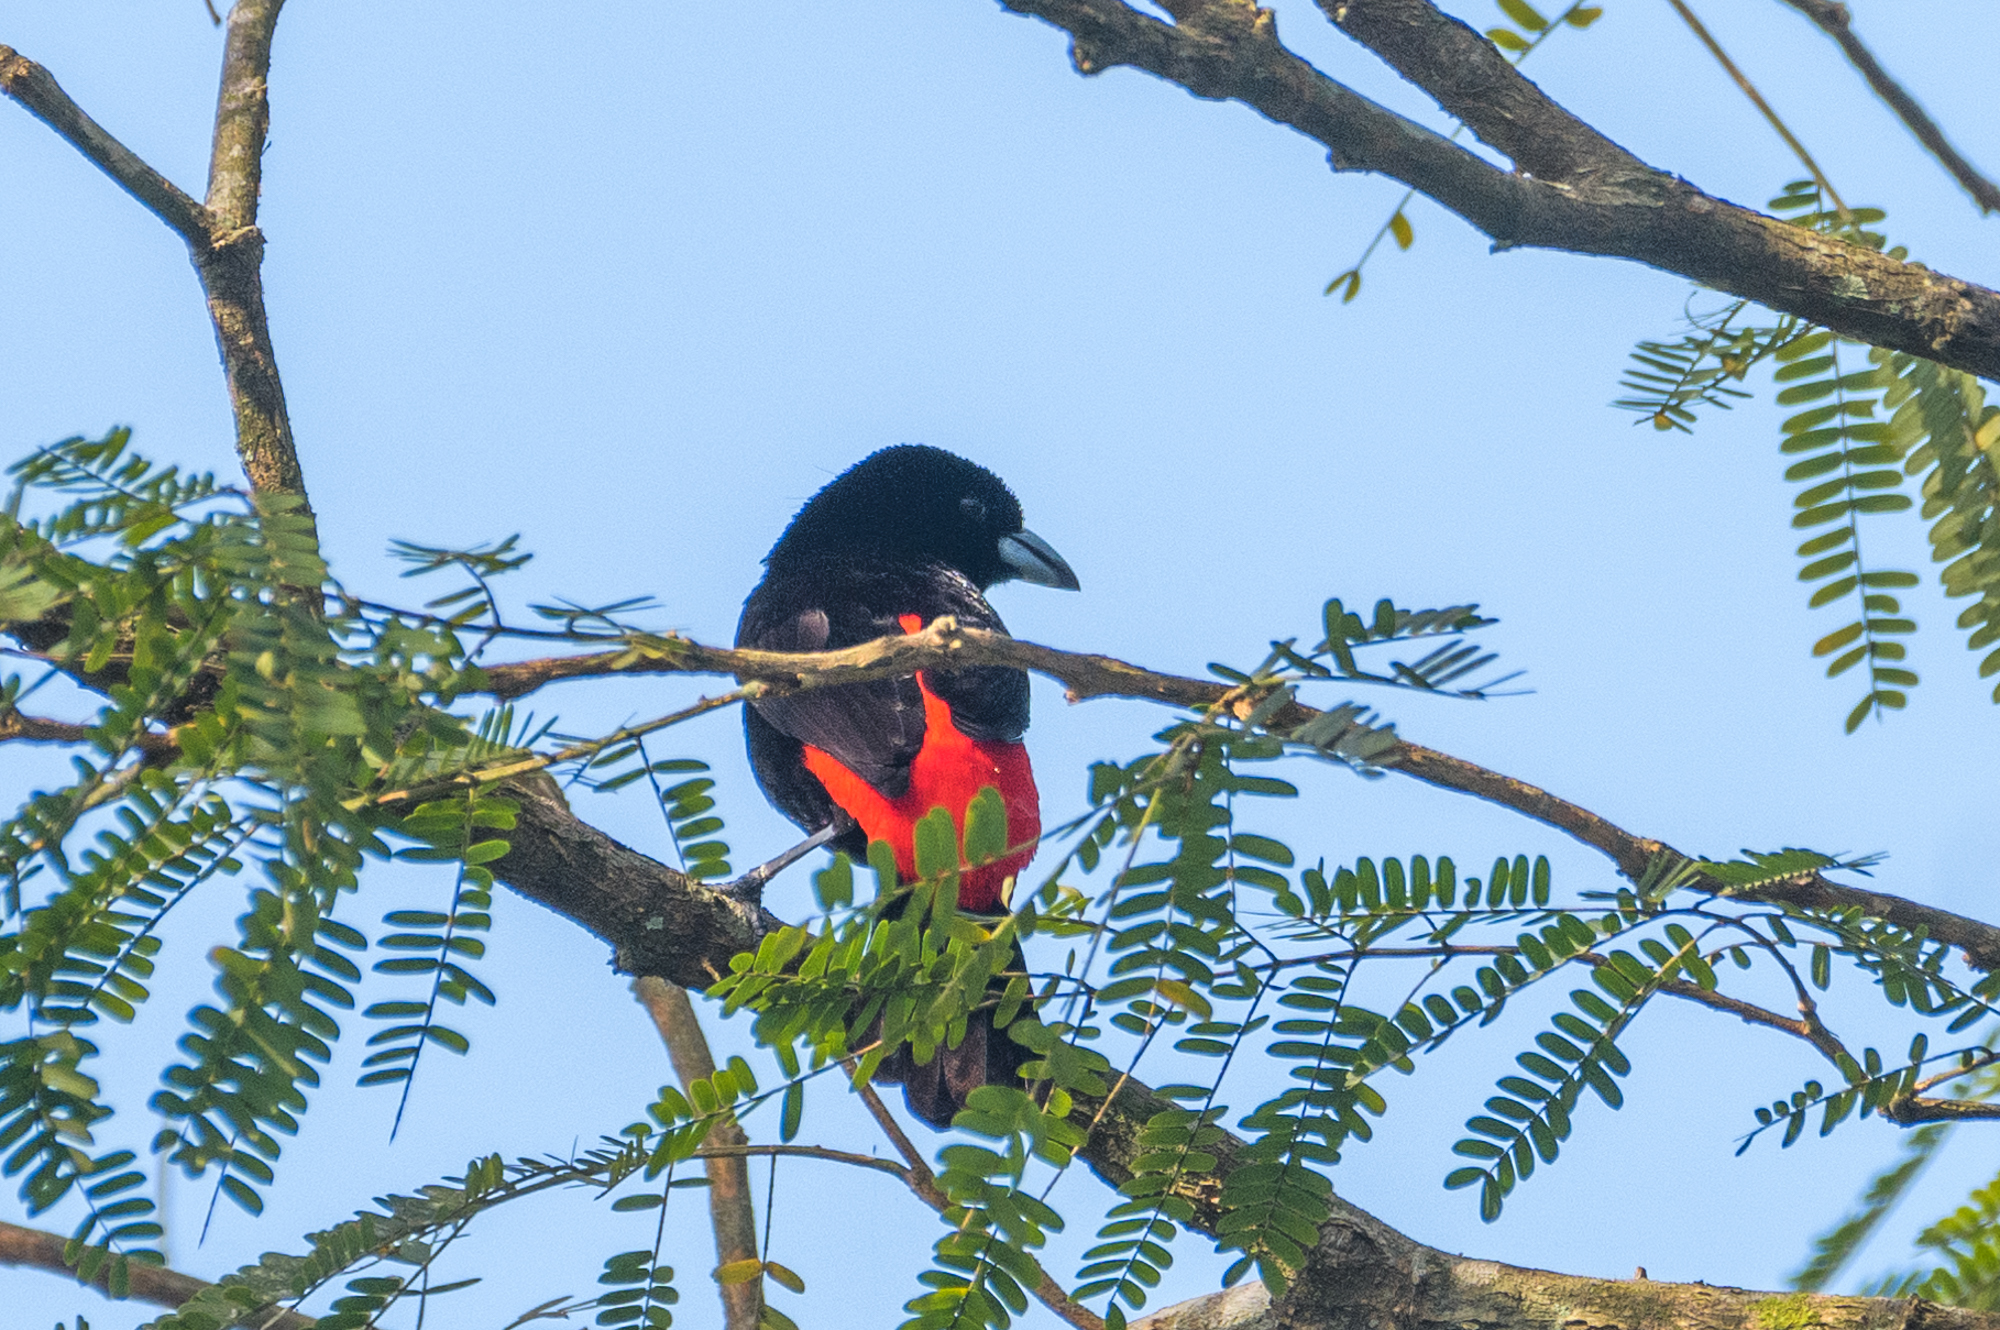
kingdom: Animalia
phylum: Chordata
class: Aves
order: Passeriformes
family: Thraupidae
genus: Ramphocelus
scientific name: Ramphocelus passerinii
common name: Passerini's tanager
